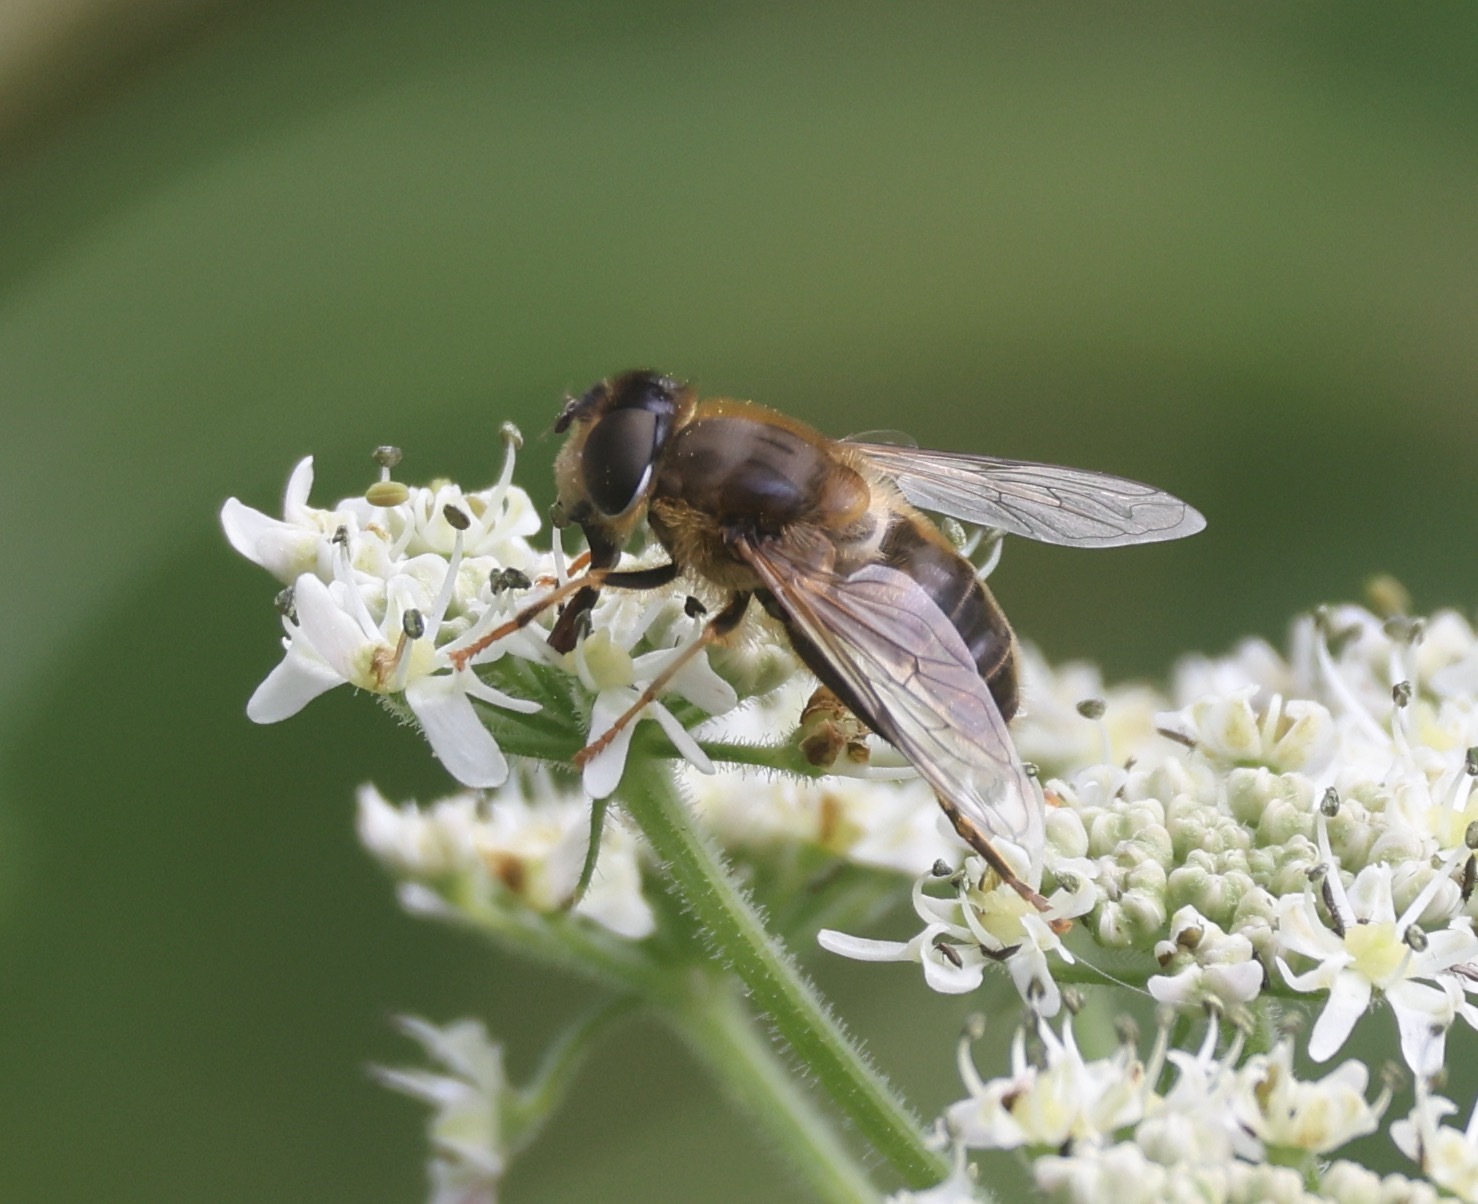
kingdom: Animalia
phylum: Arthropoda
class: Insecta
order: Diptera
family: Syrphidae
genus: Eristalis
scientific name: Eristalis pertinax
